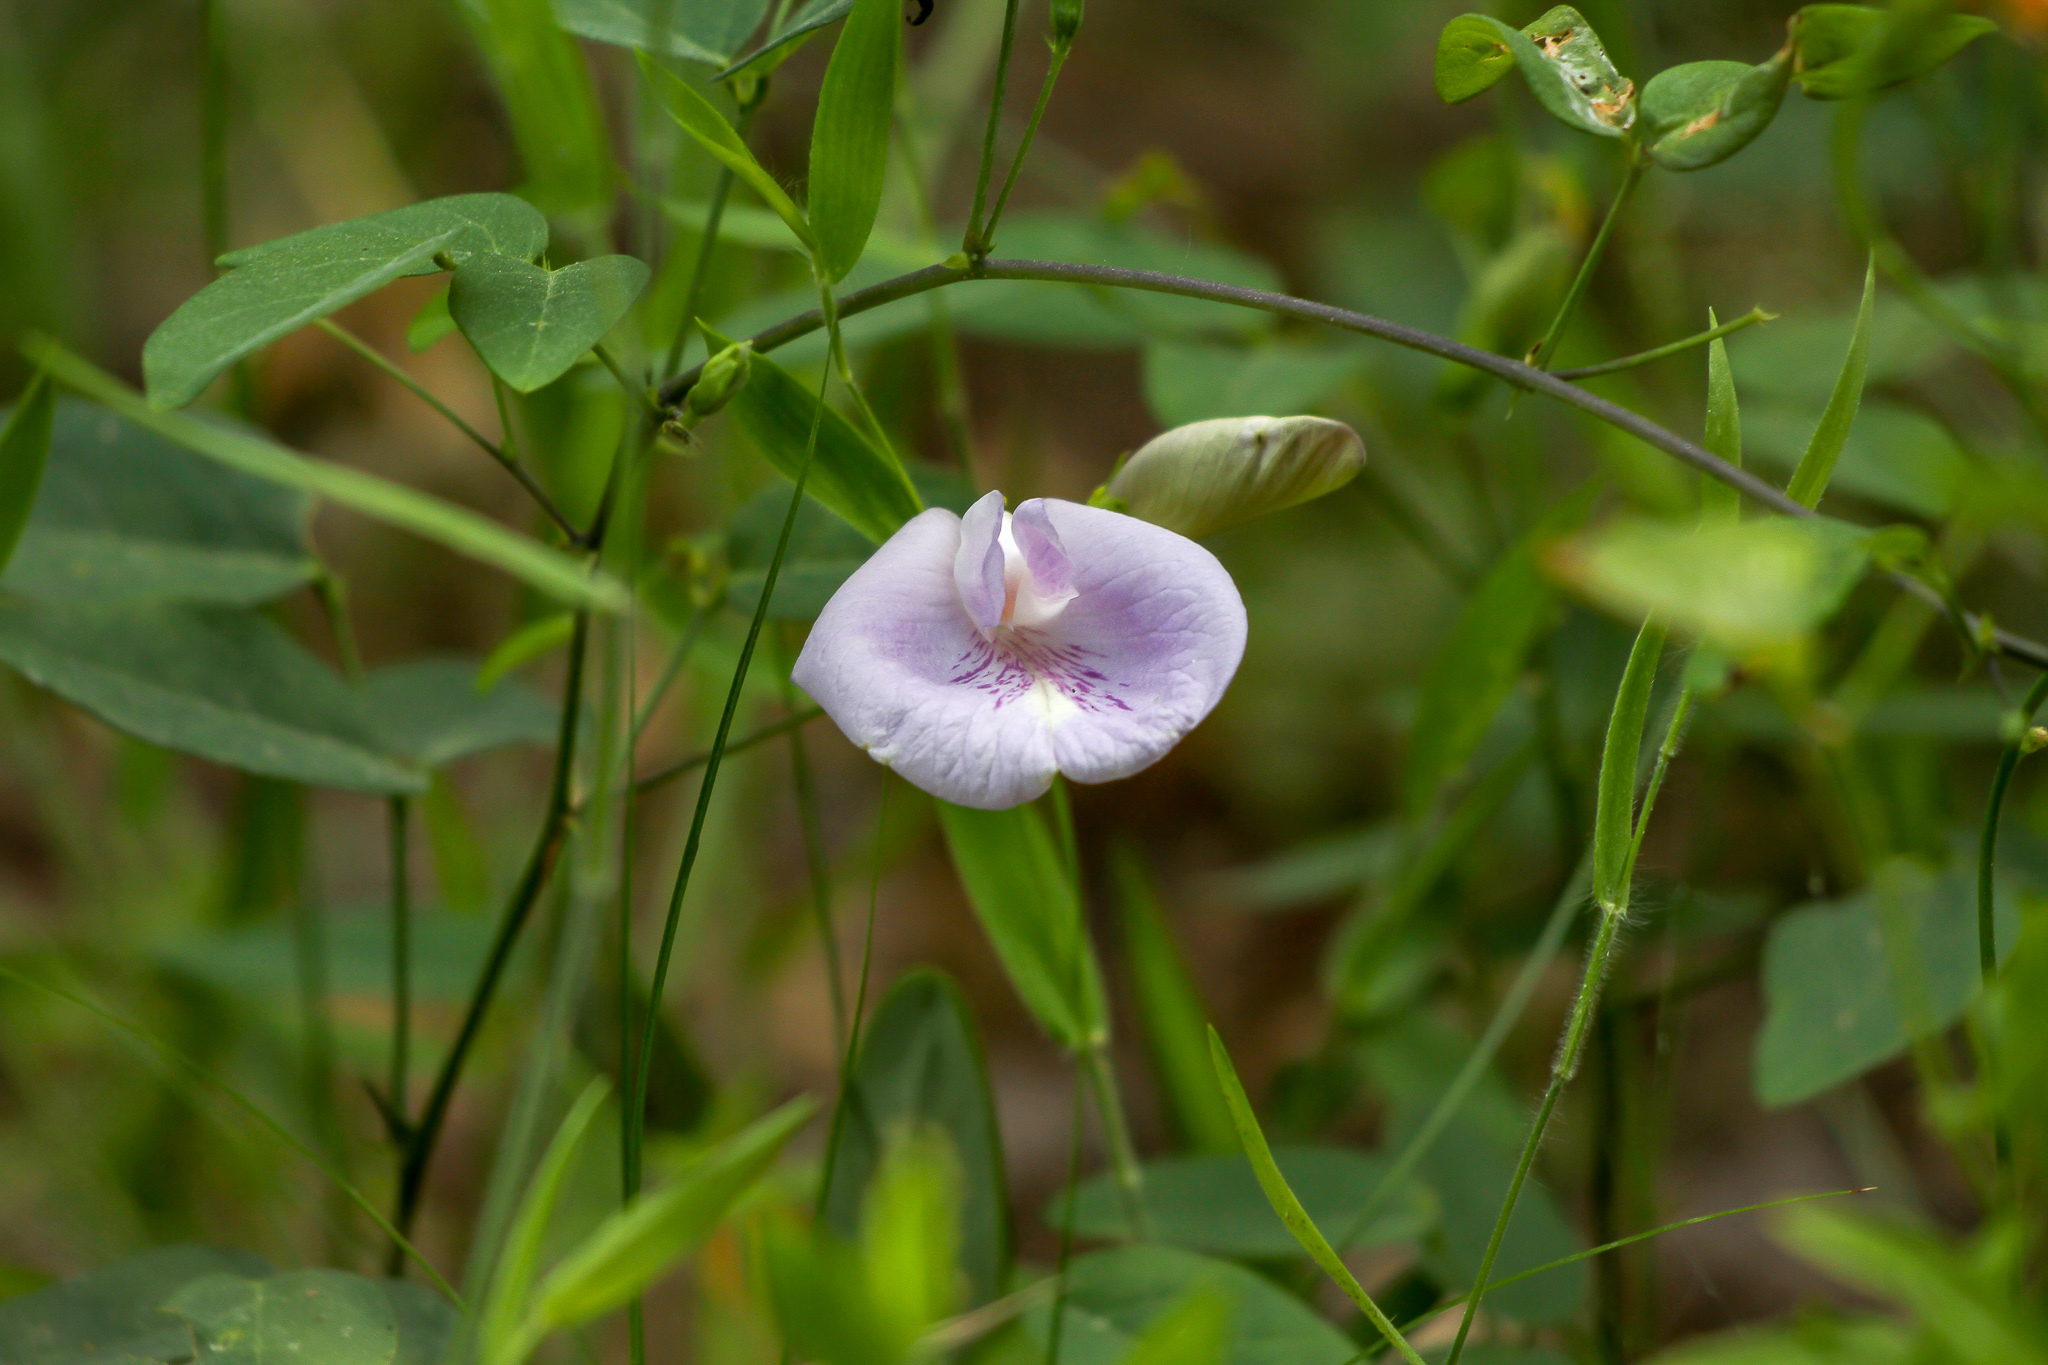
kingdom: Plantae
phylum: Tracheophyta
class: Magnoliopsida
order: Fabales
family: Fabaceae
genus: Clitoria
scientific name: Clitoria mariana
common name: Butterfly-pea
